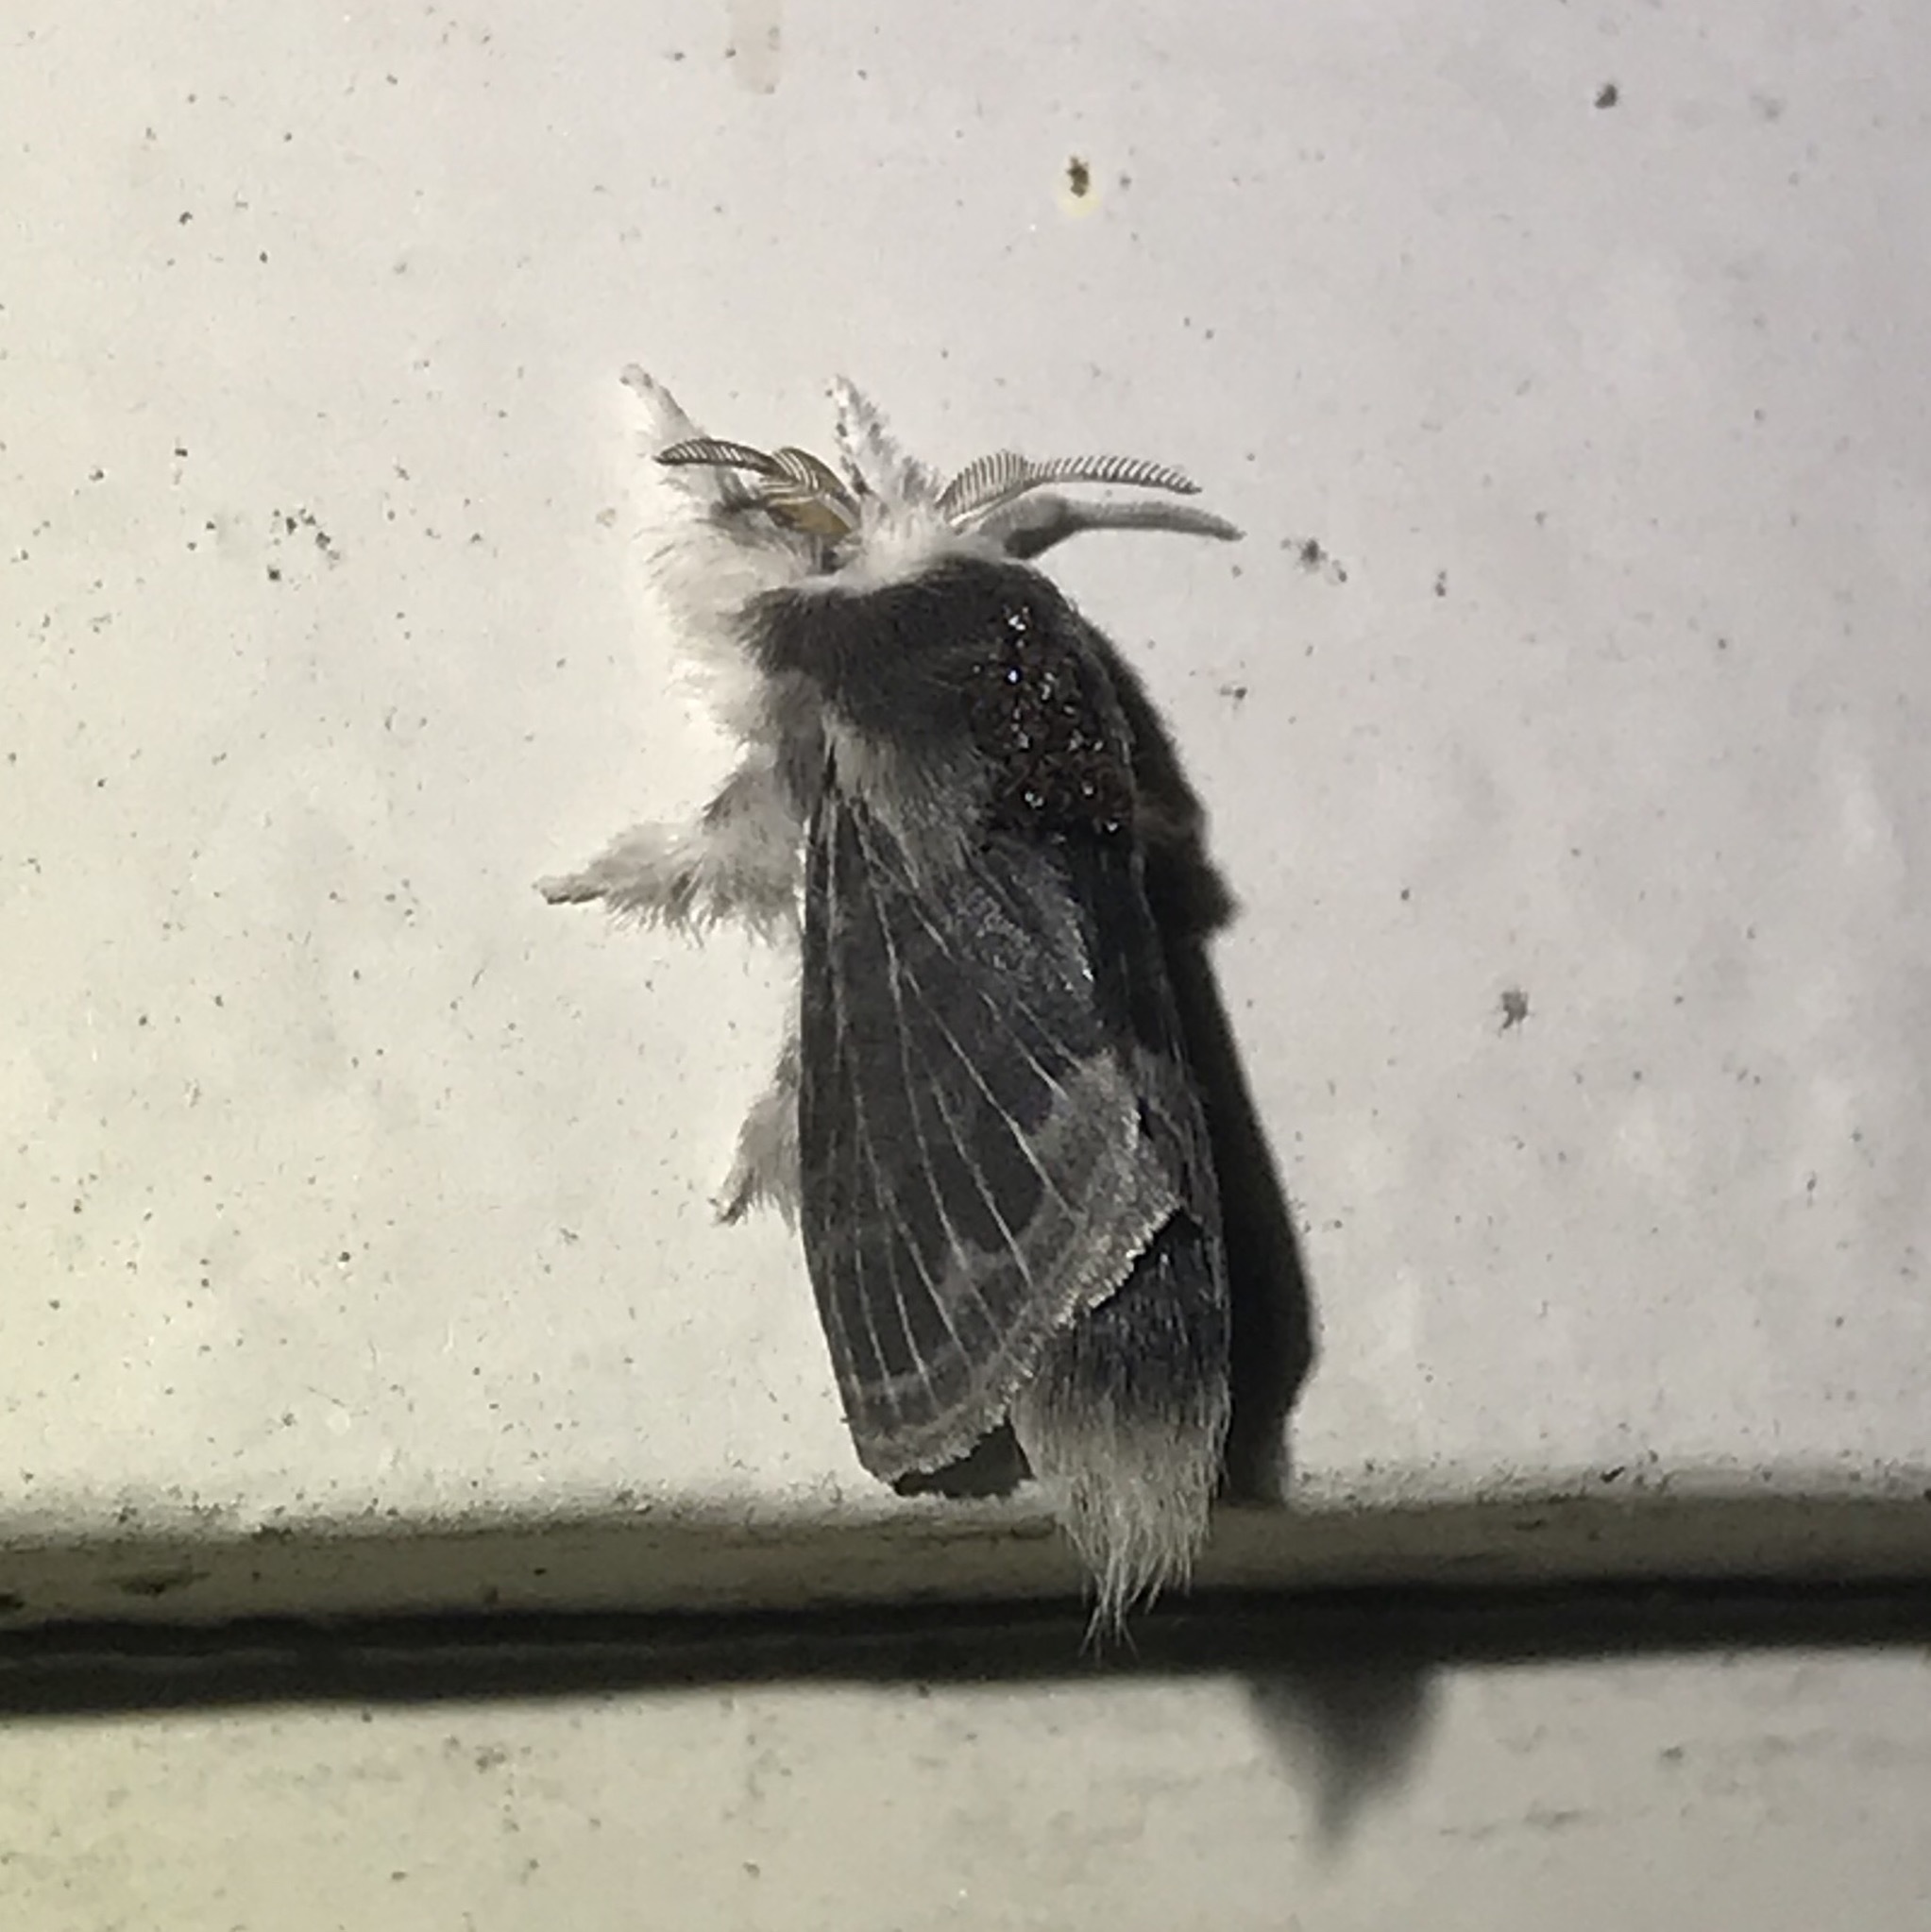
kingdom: Animalia
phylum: Arthropoda
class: Insecta
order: Lepidoptera
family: Lasiocampidae
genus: Tolype
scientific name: Tolype laricis
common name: Larch tolype moth
